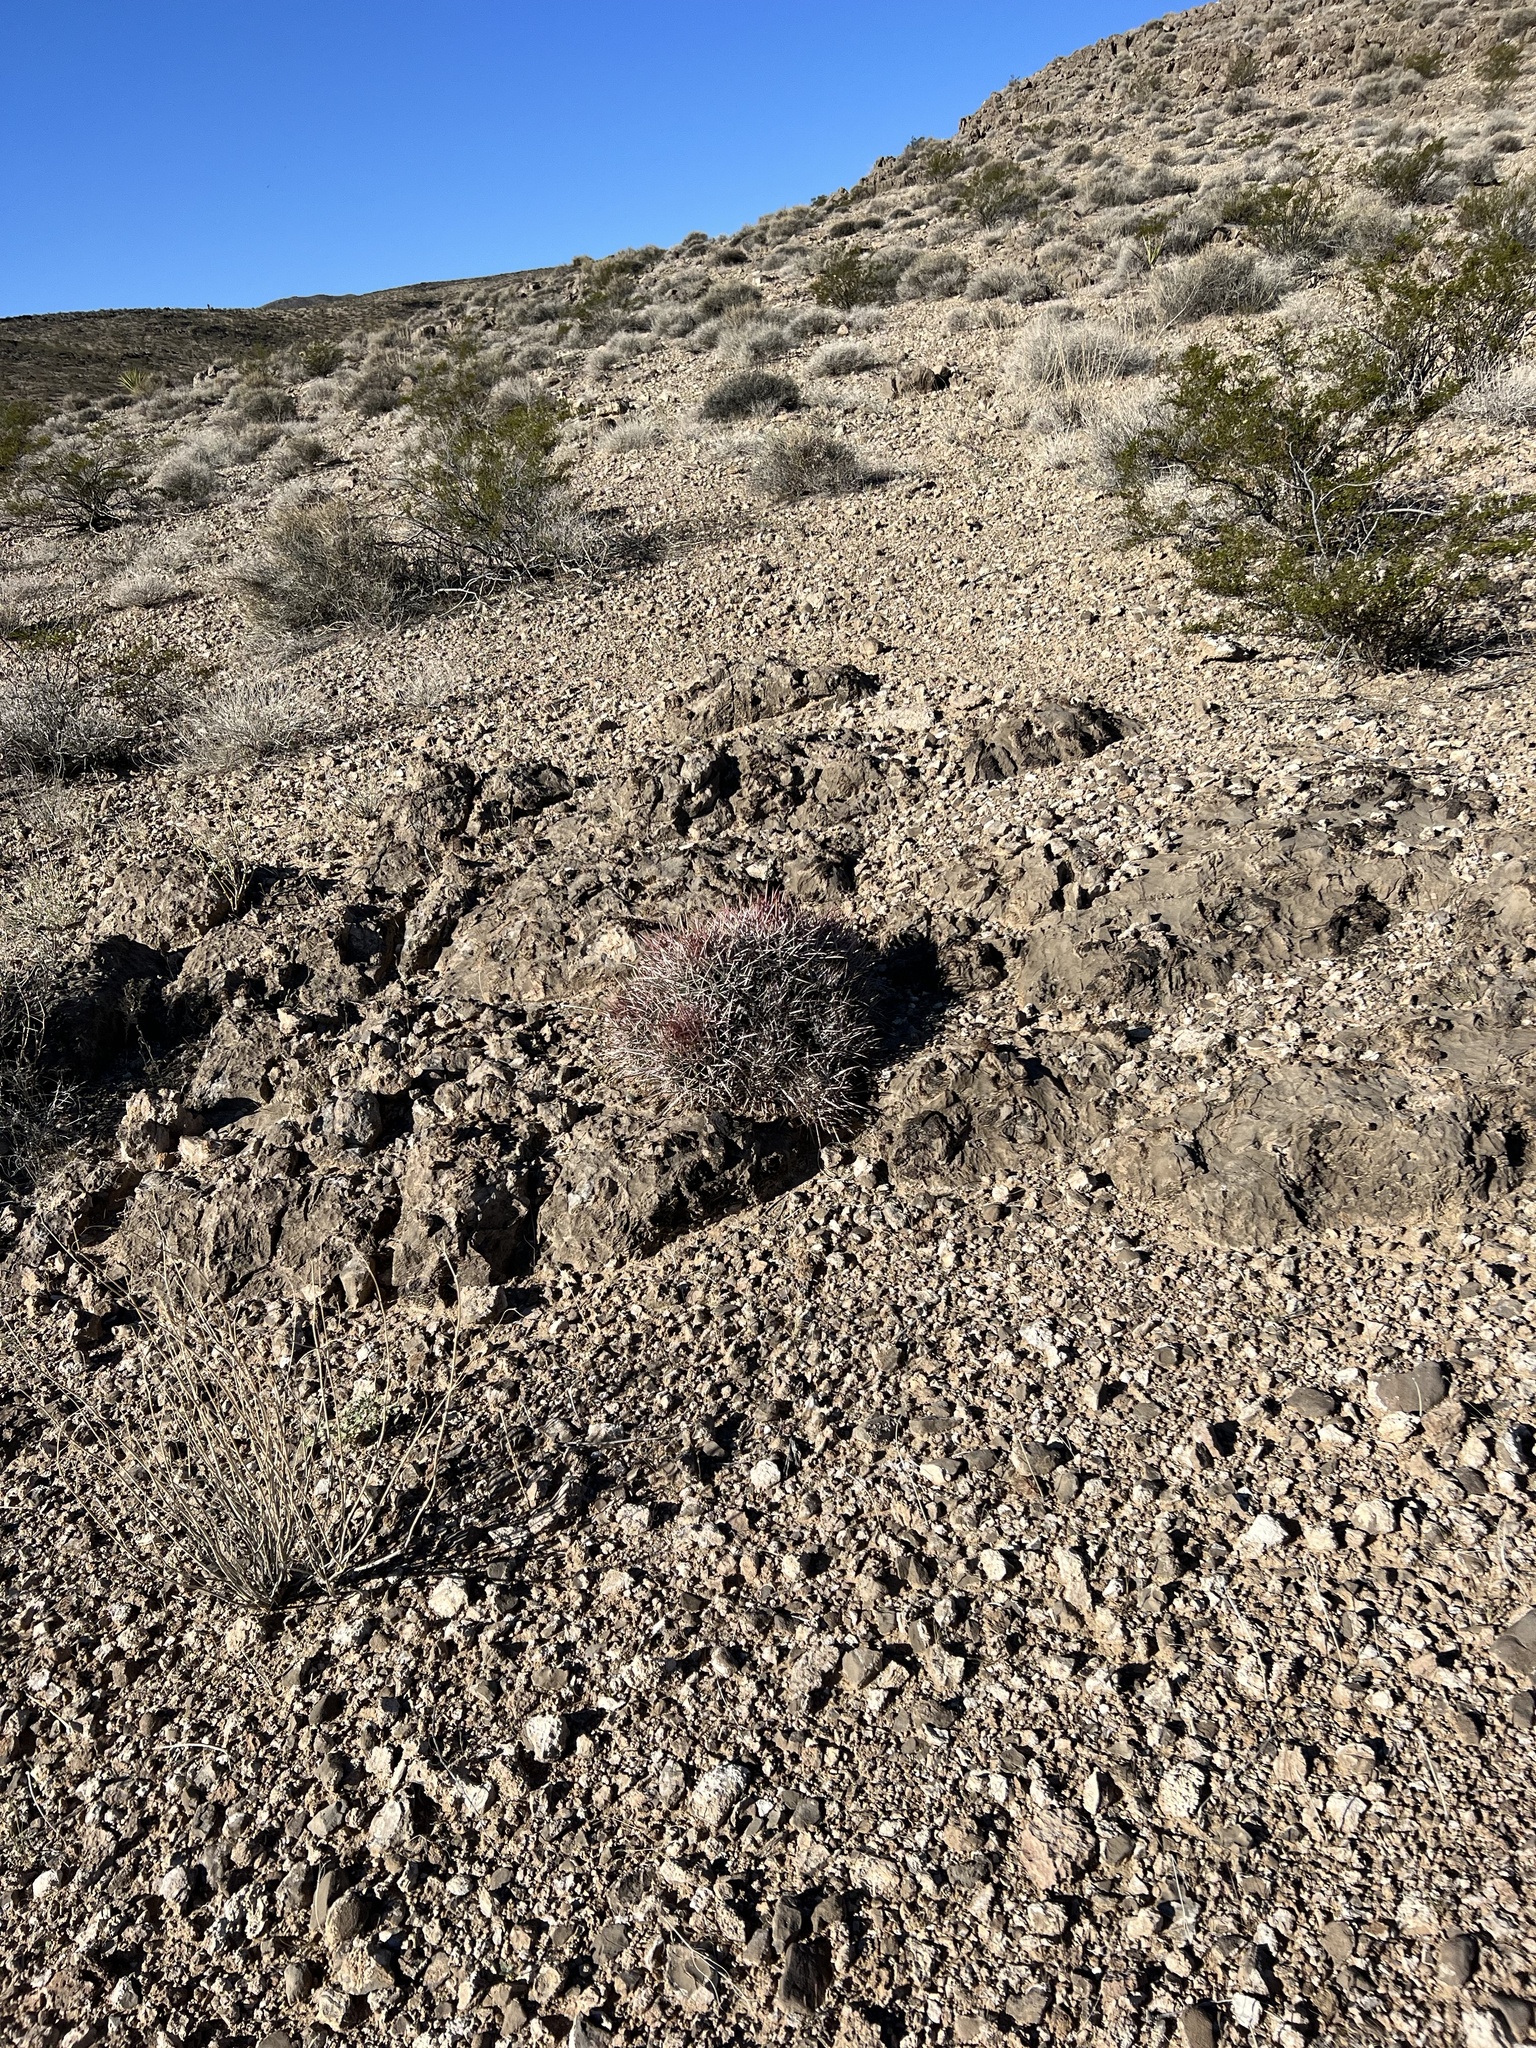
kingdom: Plantae
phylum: Tracheophyta
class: Magnoliopsida
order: Caryophyllales
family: Cactaceae
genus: Echinocactus
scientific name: Echinocactus polycephalus
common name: Cottontop cactus
